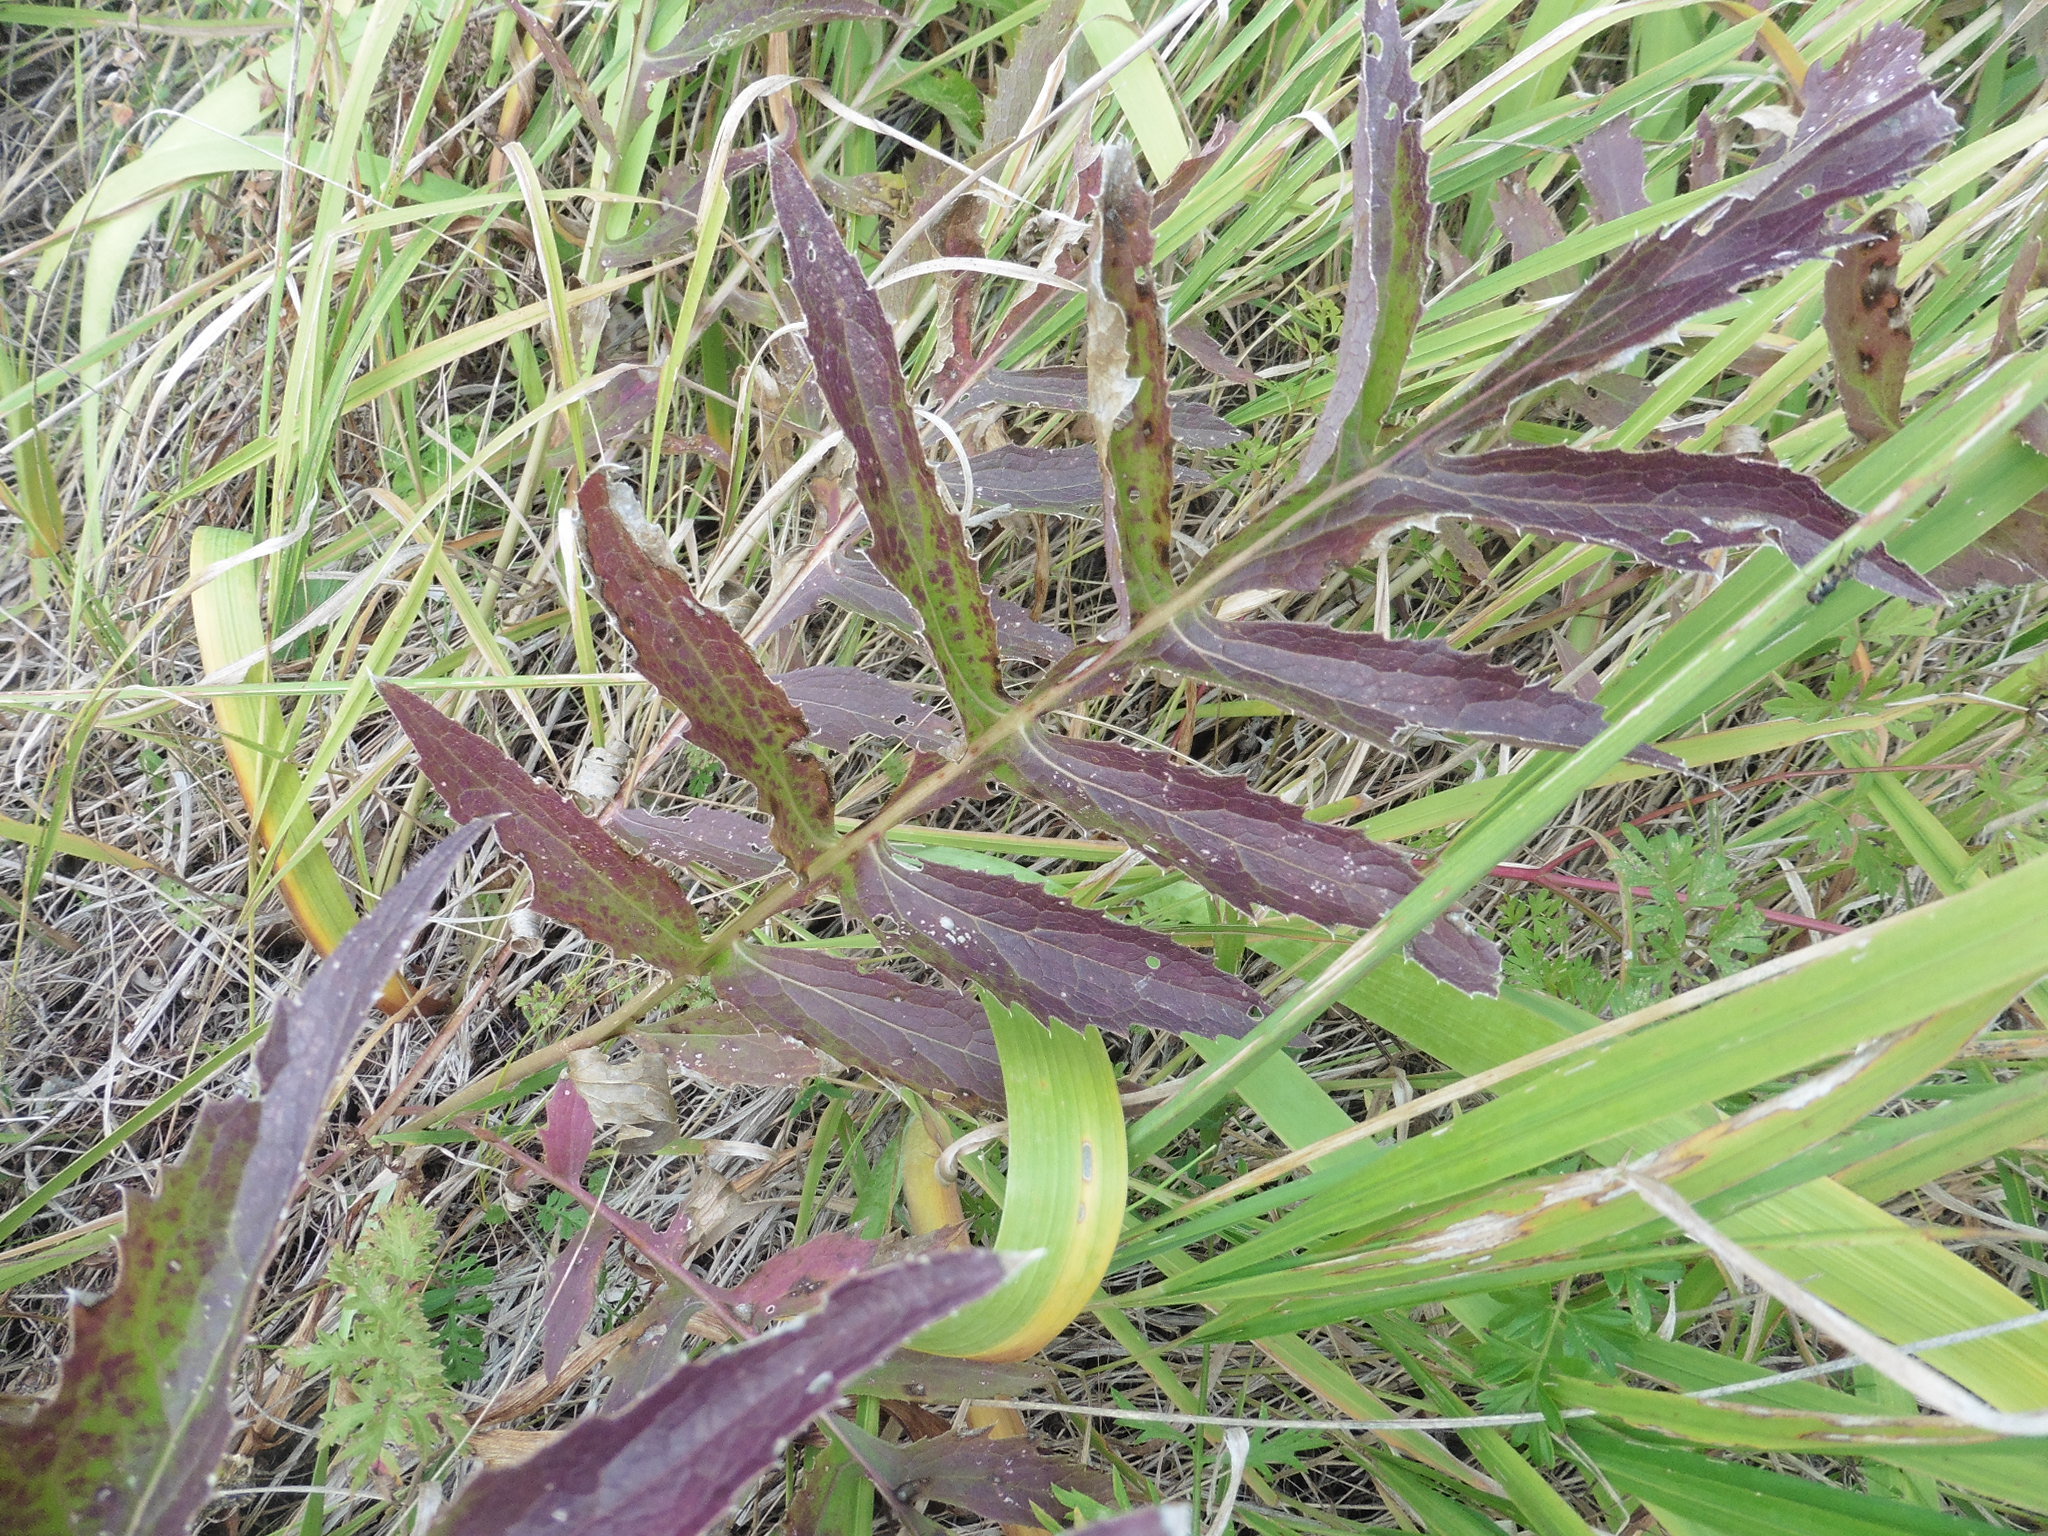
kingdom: Plantae
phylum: Tracheophyta
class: Magnoliopsida
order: Asterales
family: Asteraceae
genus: Serratula
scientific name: Serratula coronata
